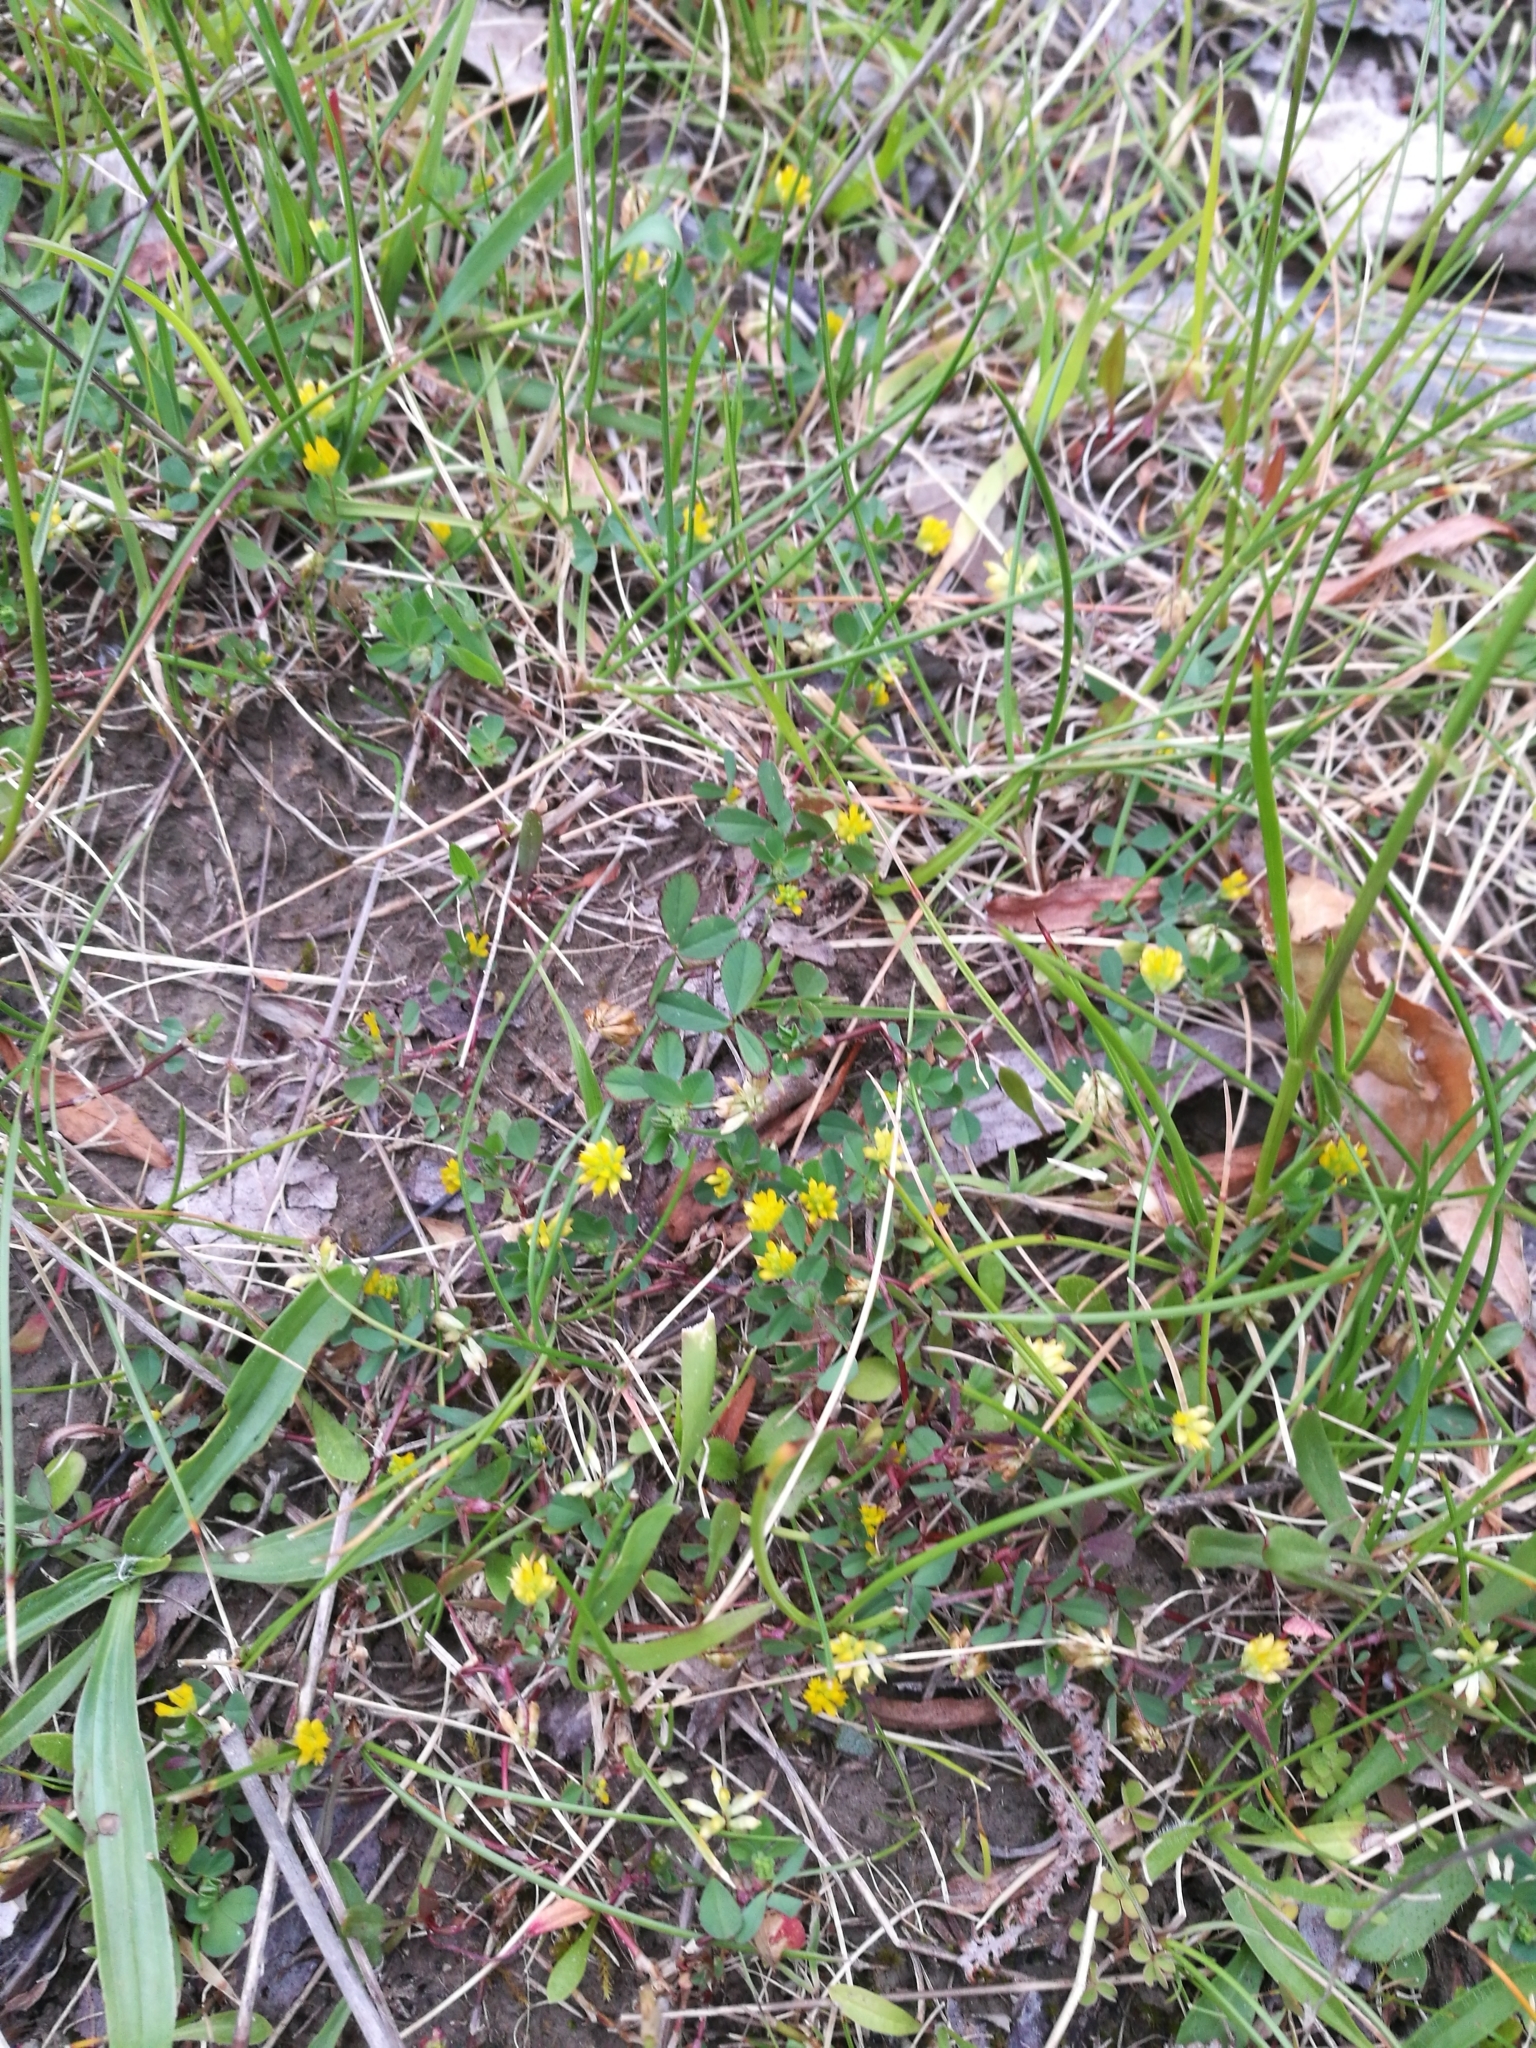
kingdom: Plantae
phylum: Tracheophyta
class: Magnoliopsida
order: Fabales
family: Fabaceae
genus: Trifolium
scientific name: Trifolium dubium
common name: Suckling clover
